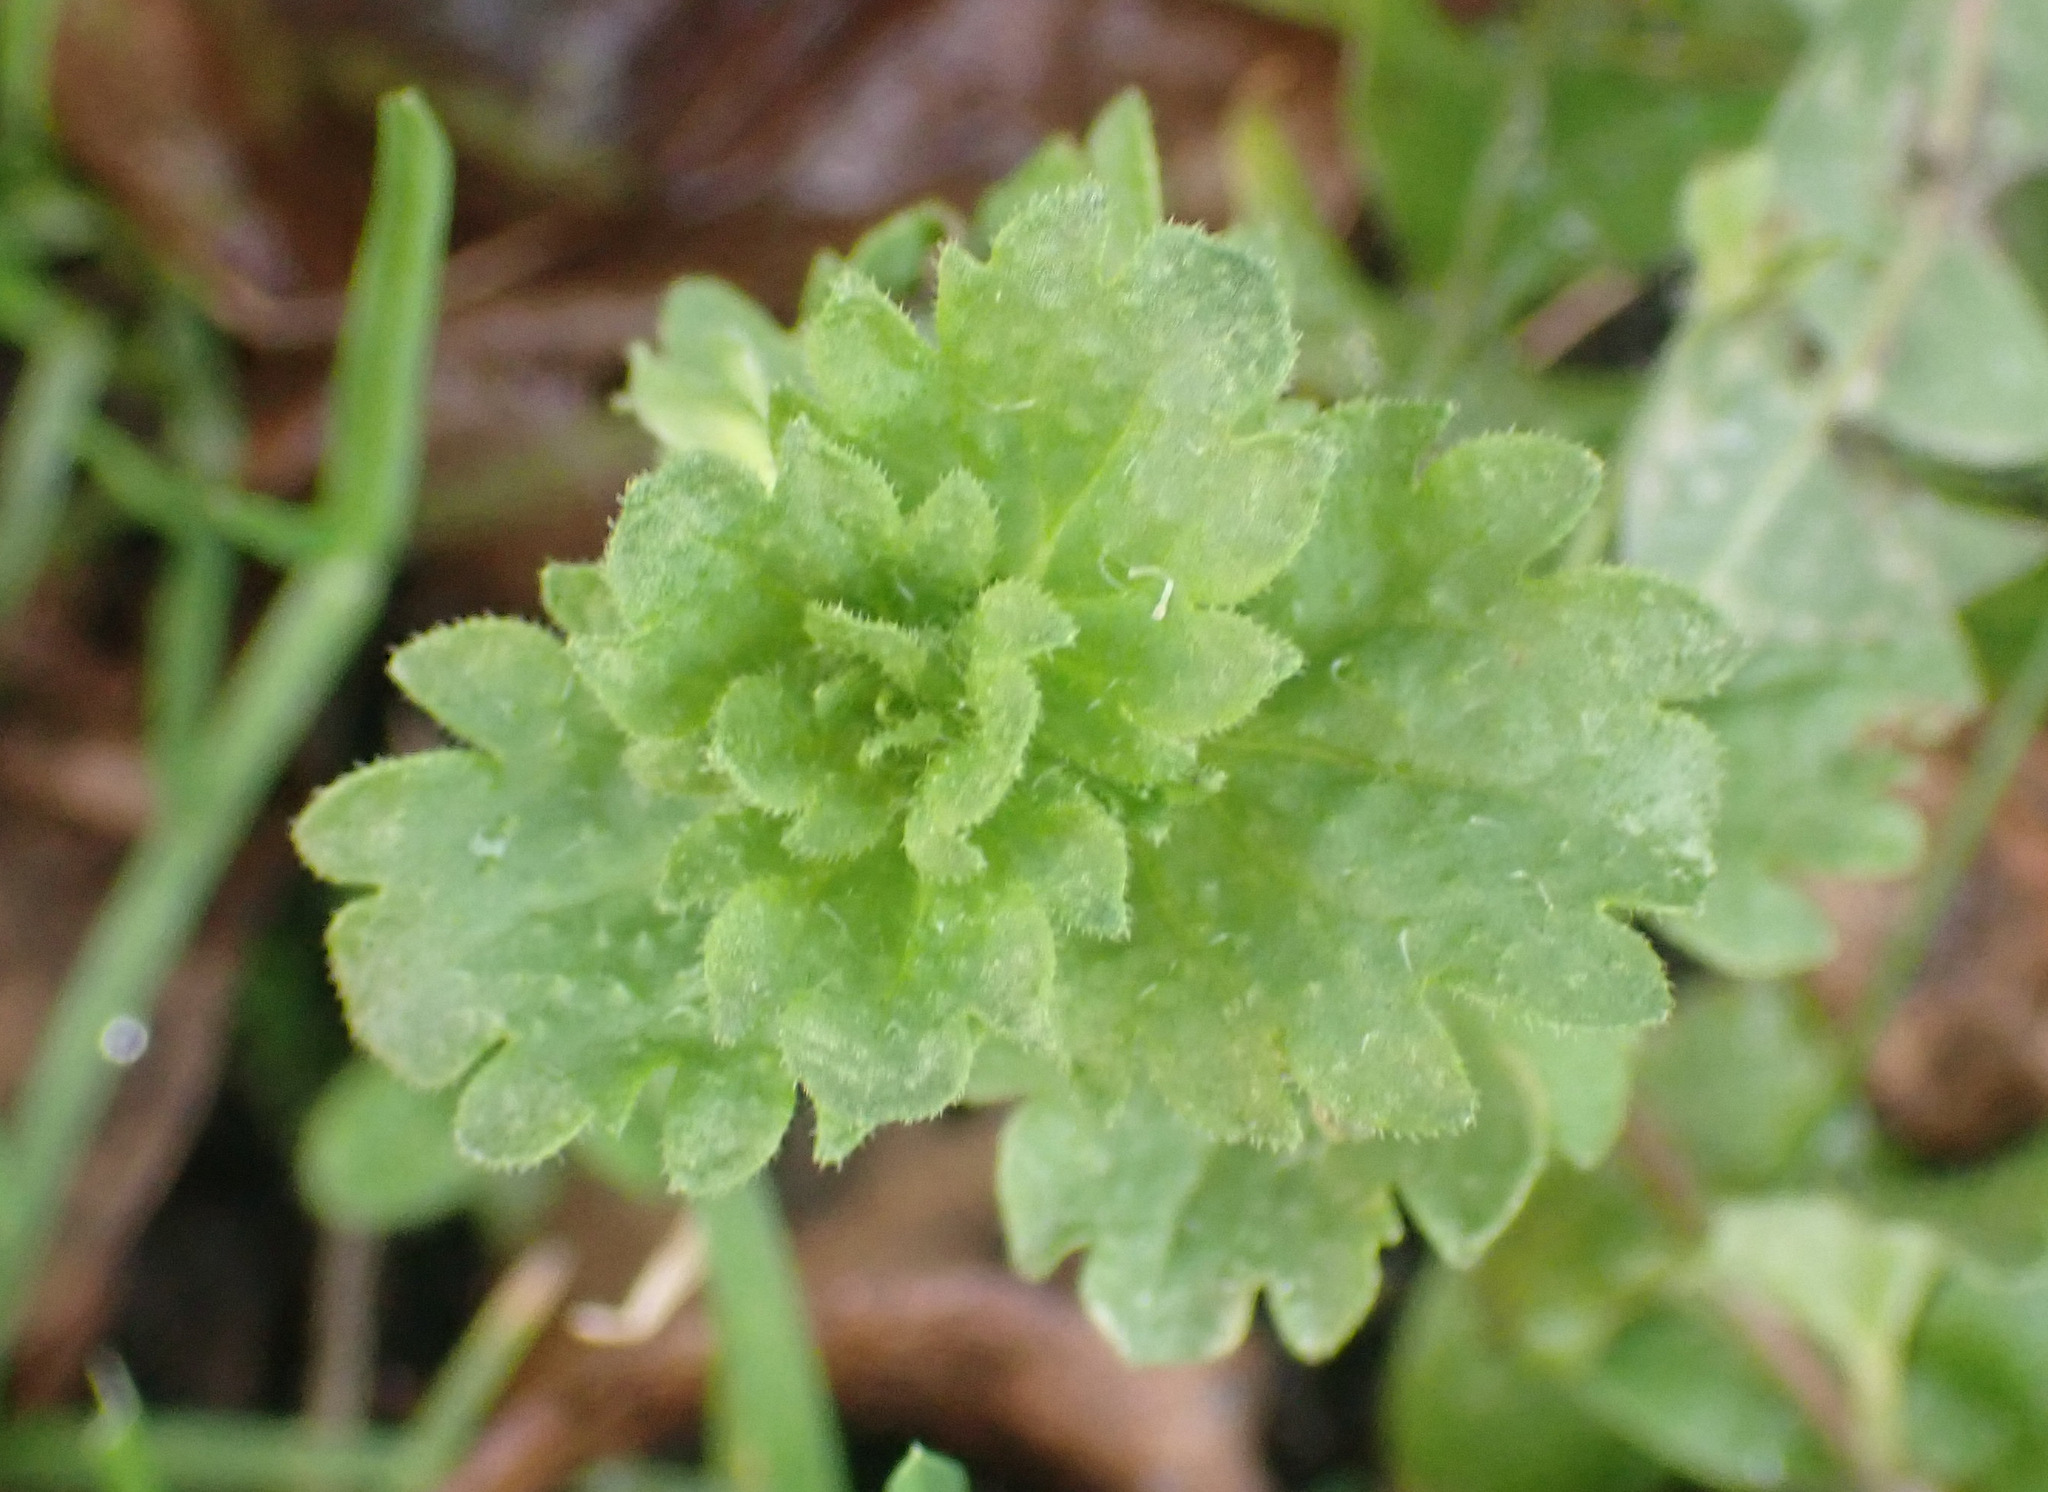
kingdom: Plantae
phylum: Tracheophyta
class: Magnoliopsida
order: Lamiales
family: Plantaginaceae
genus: Veronica
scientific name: Veronica persica
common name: Common field-speedwell
